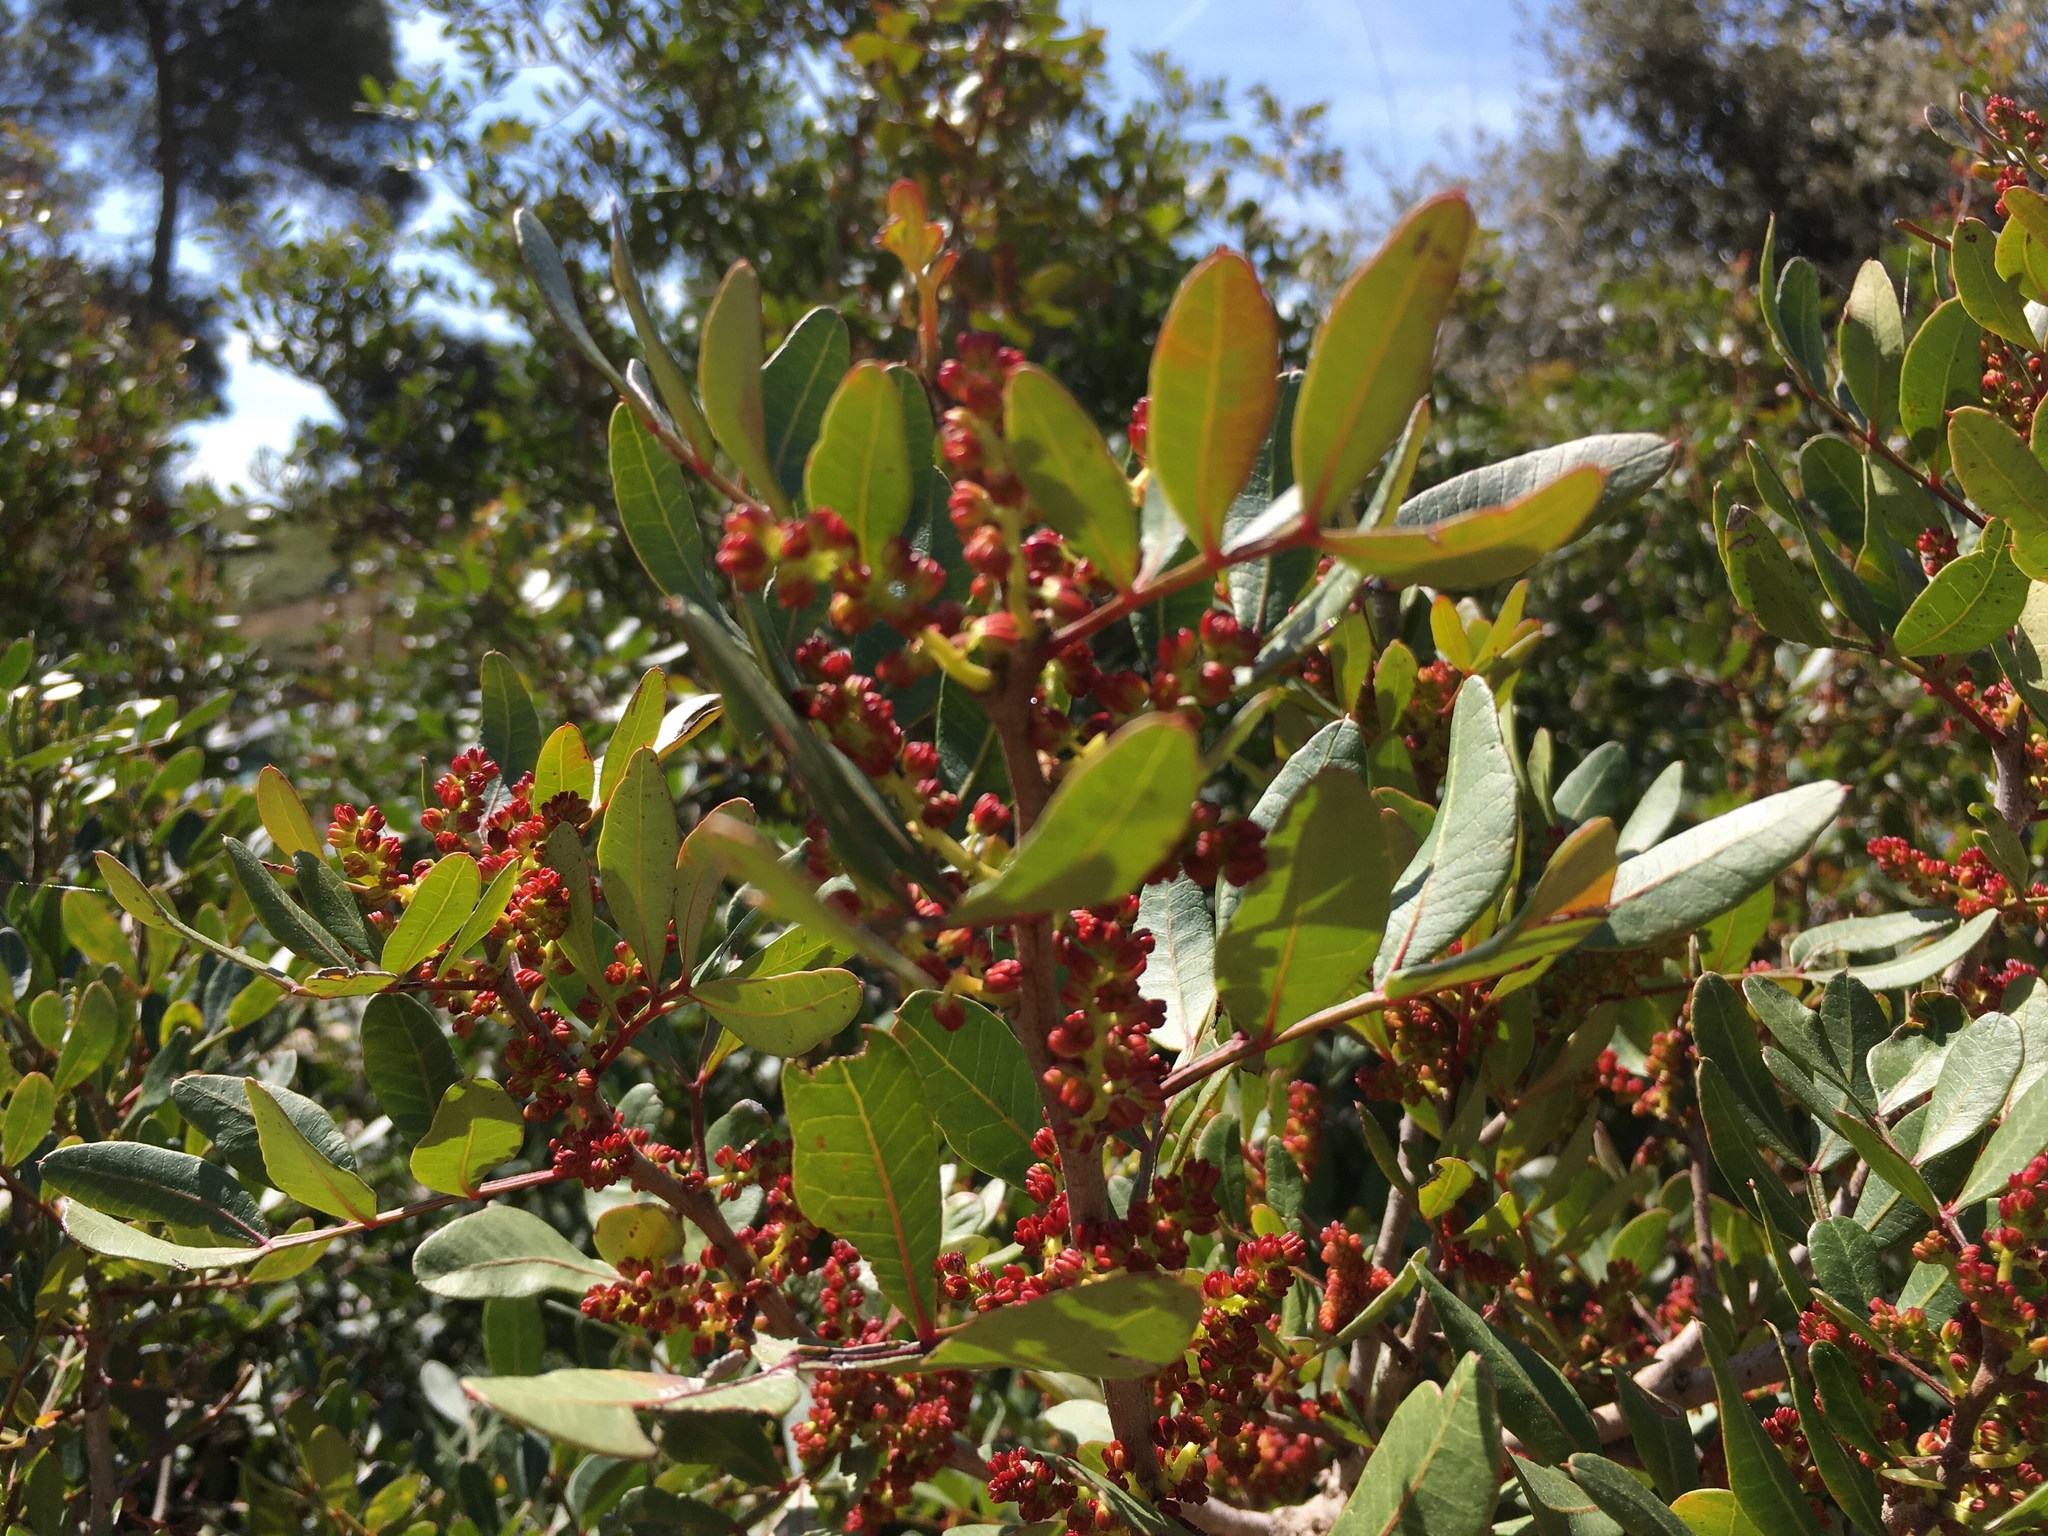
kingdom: Plantae
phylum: Tracheophyta
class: Magnoliopsida
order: Sapindales
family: Anacardiaceae
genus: Pistacia
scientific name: Pistacia lentiscus
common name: Lentisk
